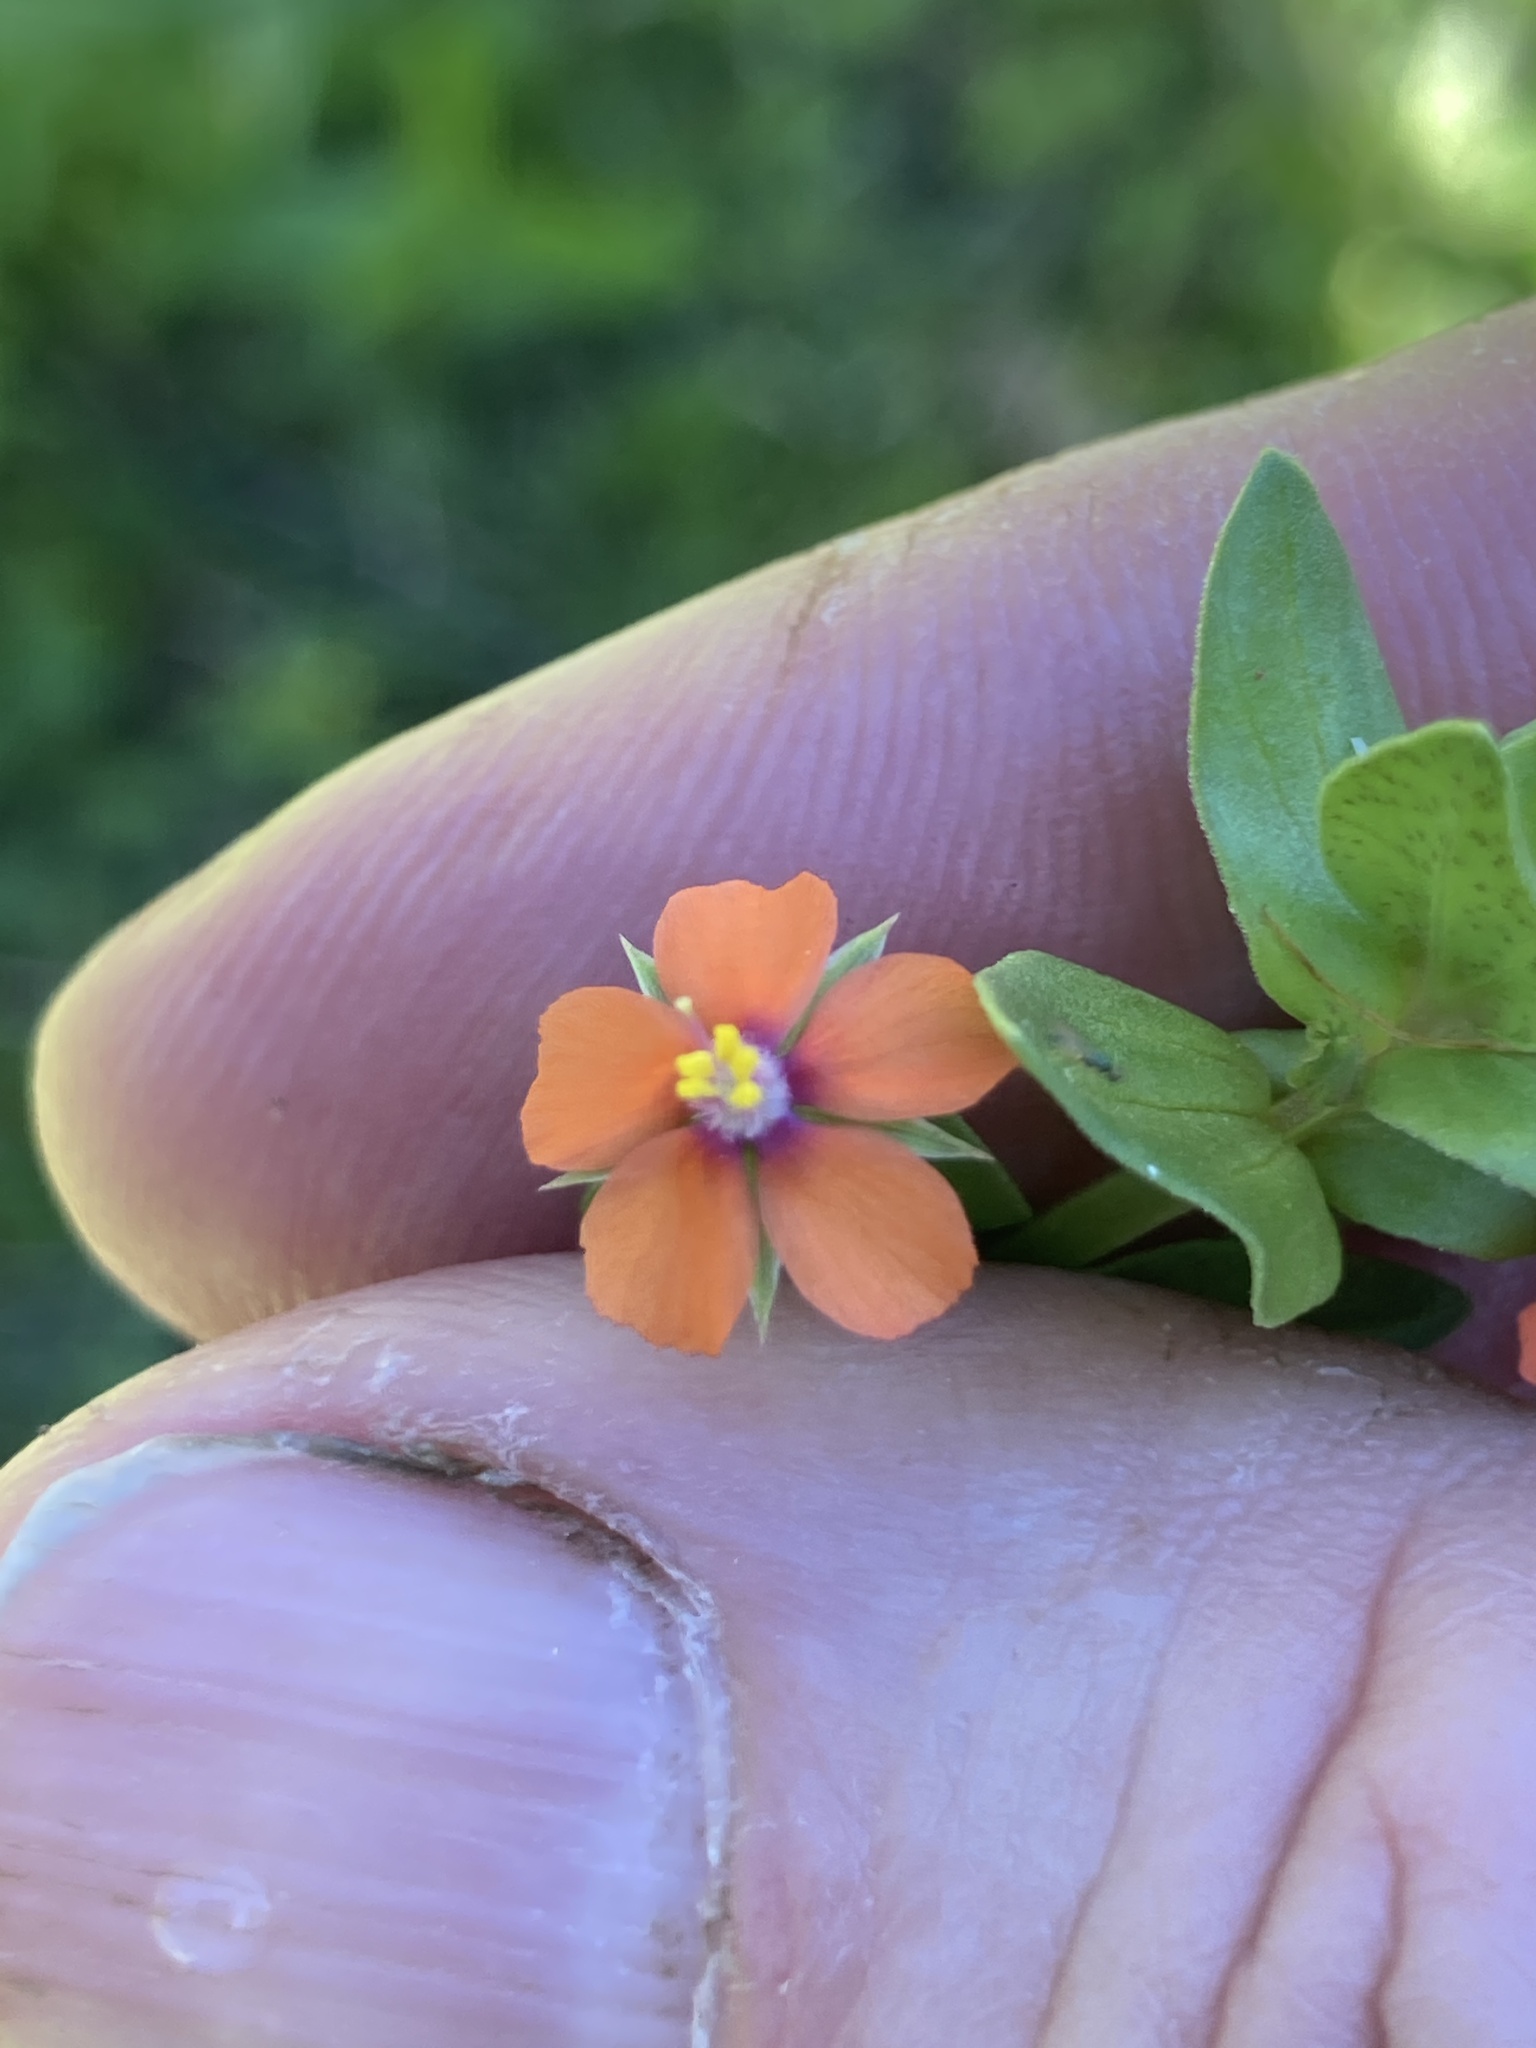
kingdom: Plantae
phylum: Tracheophyta
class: Magnoliopsida
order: Ericales
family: Primulaceae
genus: Lysimachia
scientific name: Lysimachia arvensis
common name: Scarlet pimpernel
